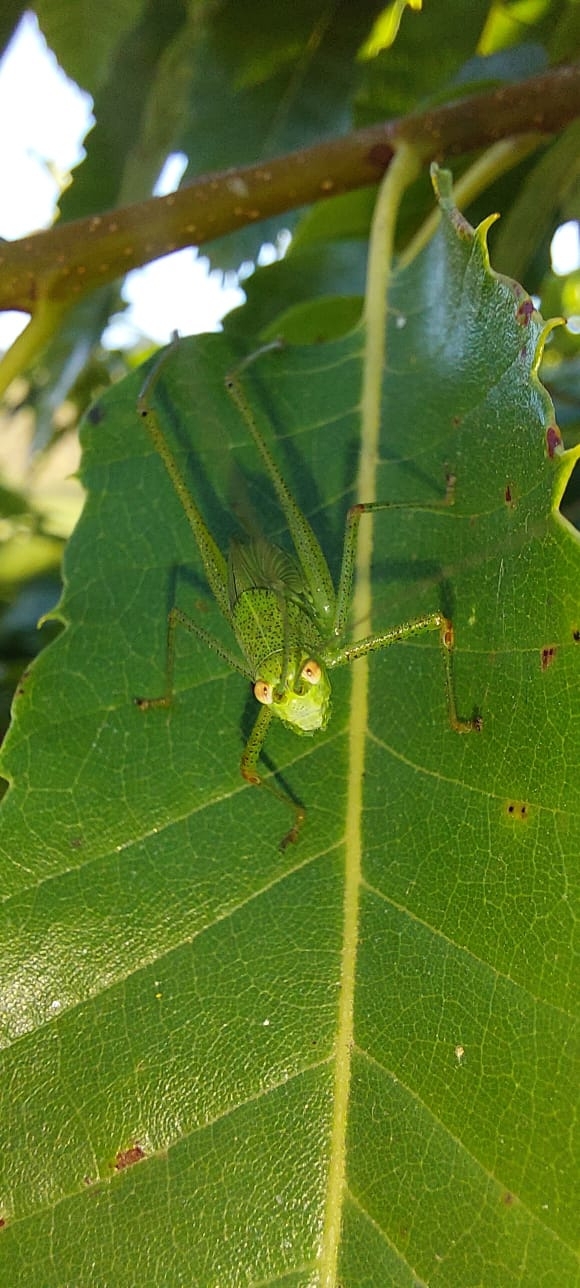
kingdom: Animalia
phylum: Arthropoda
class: Insecta
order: Orthoptera
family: Tettigoniidae
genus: Phaneroptera
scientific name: Phaneroptera nana
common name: Southern sickle bush-cricket
